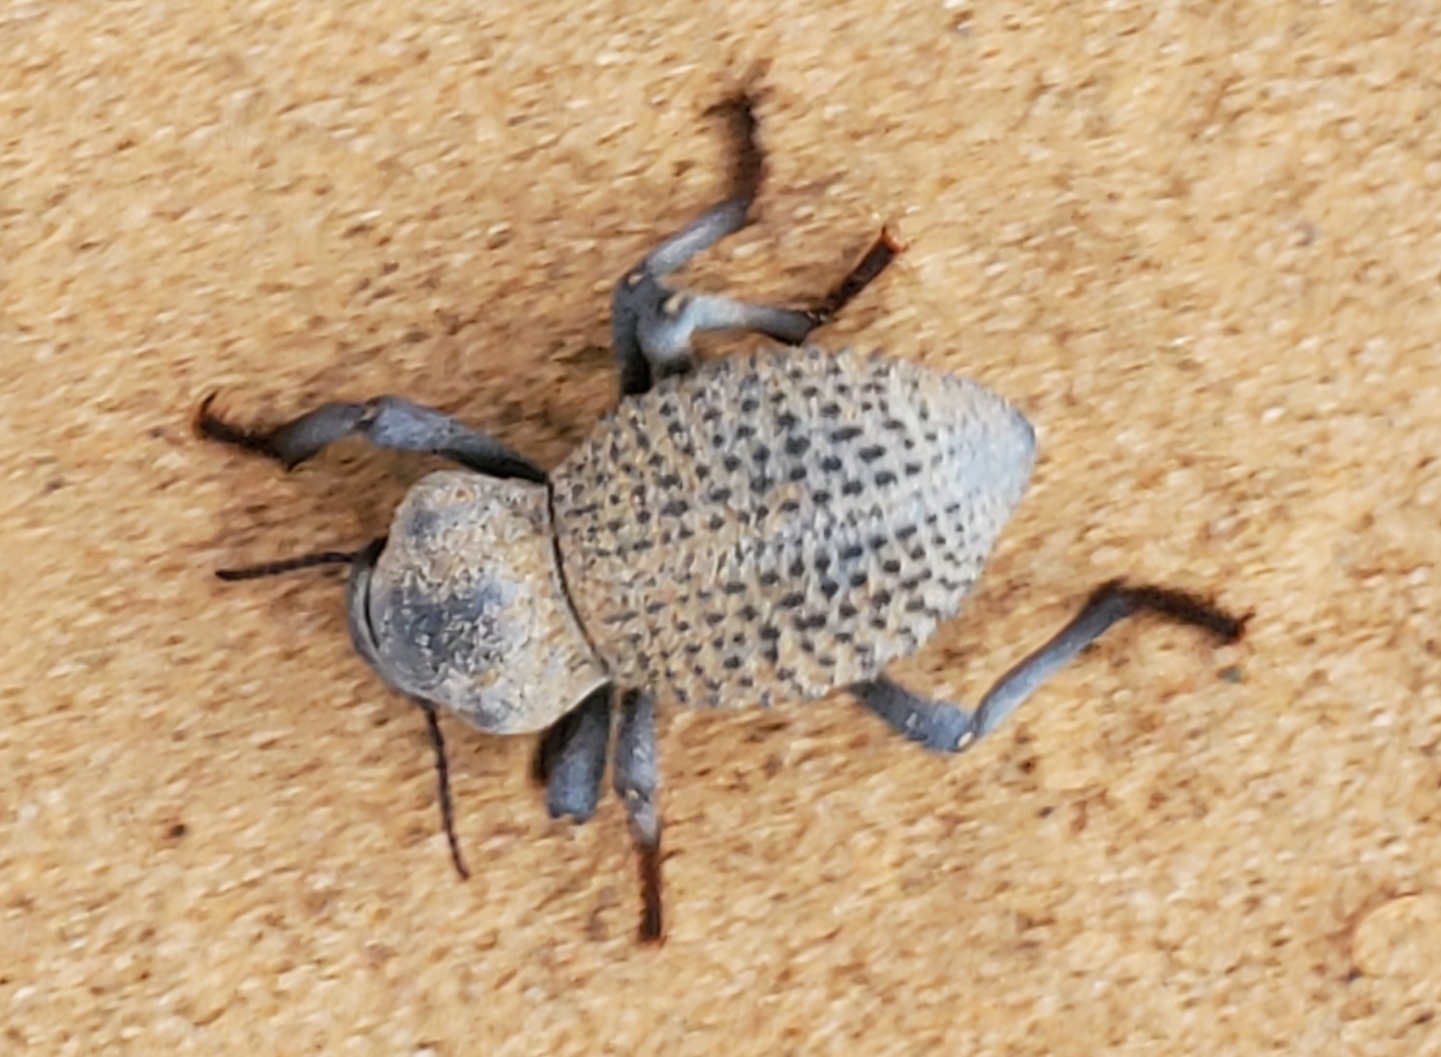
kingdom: Animalia
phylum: Arthropoda
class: Insecta
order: Coleoptera
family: Tenebrionidae
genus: Asbolus
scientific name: Asbolus verrucosus
